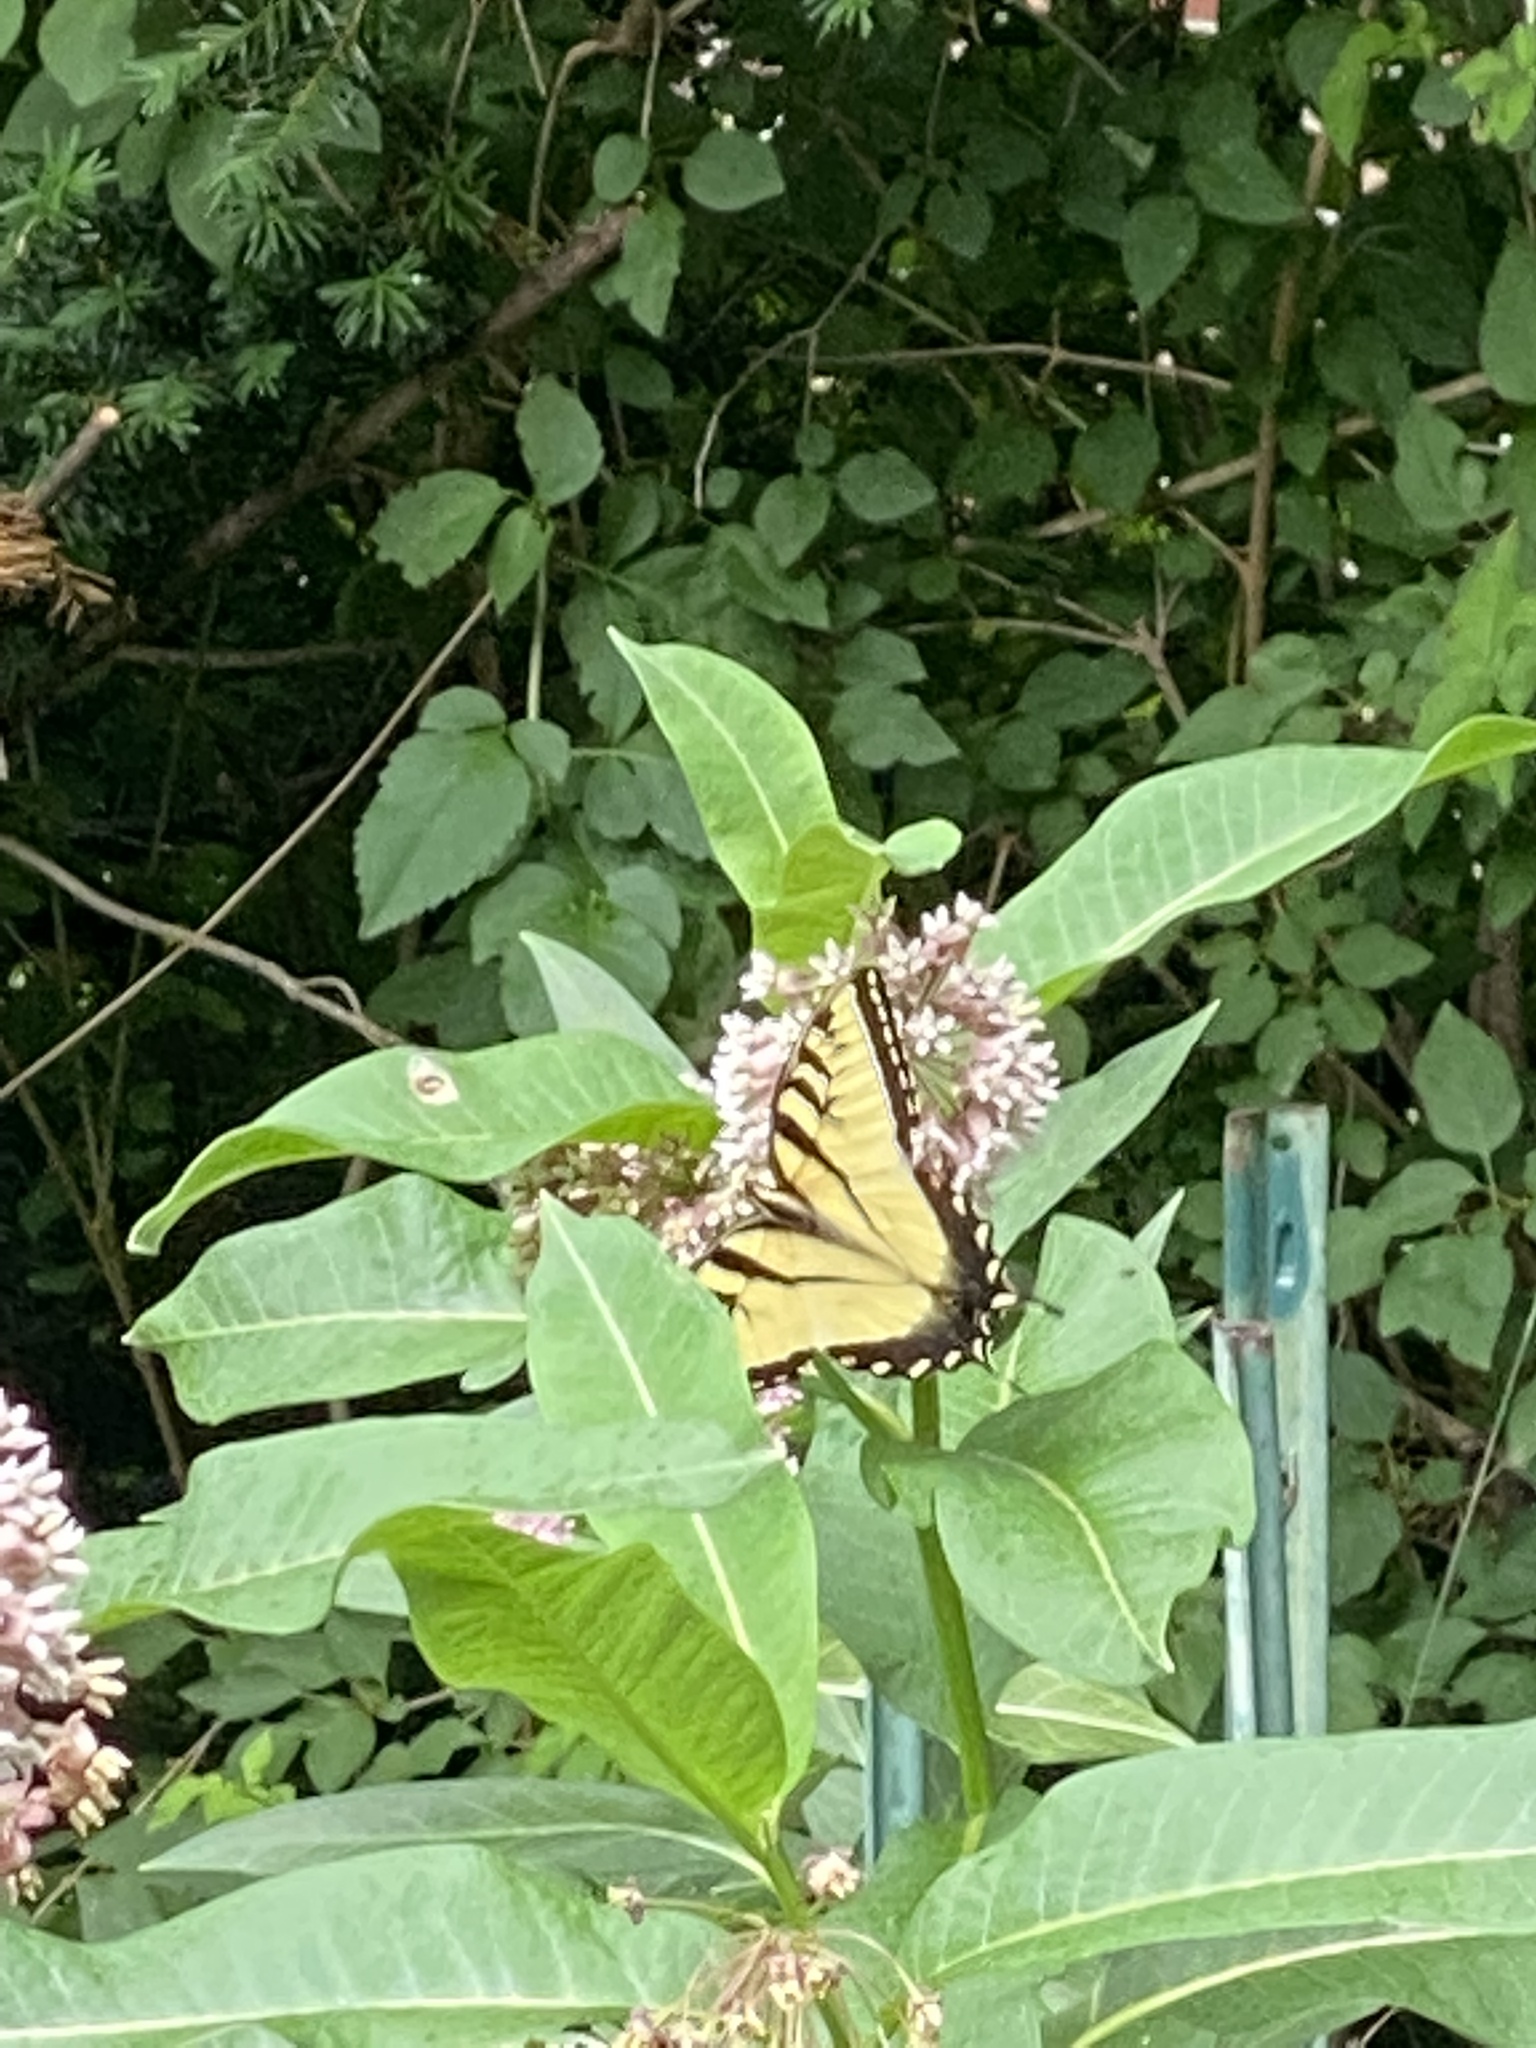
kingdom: Animalia
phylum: Arthropoda
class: Insecta
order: Lepidoptera
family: Papilionidae
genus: Papilio
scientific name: Papilio glaucus
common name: Tiger swallowtail
